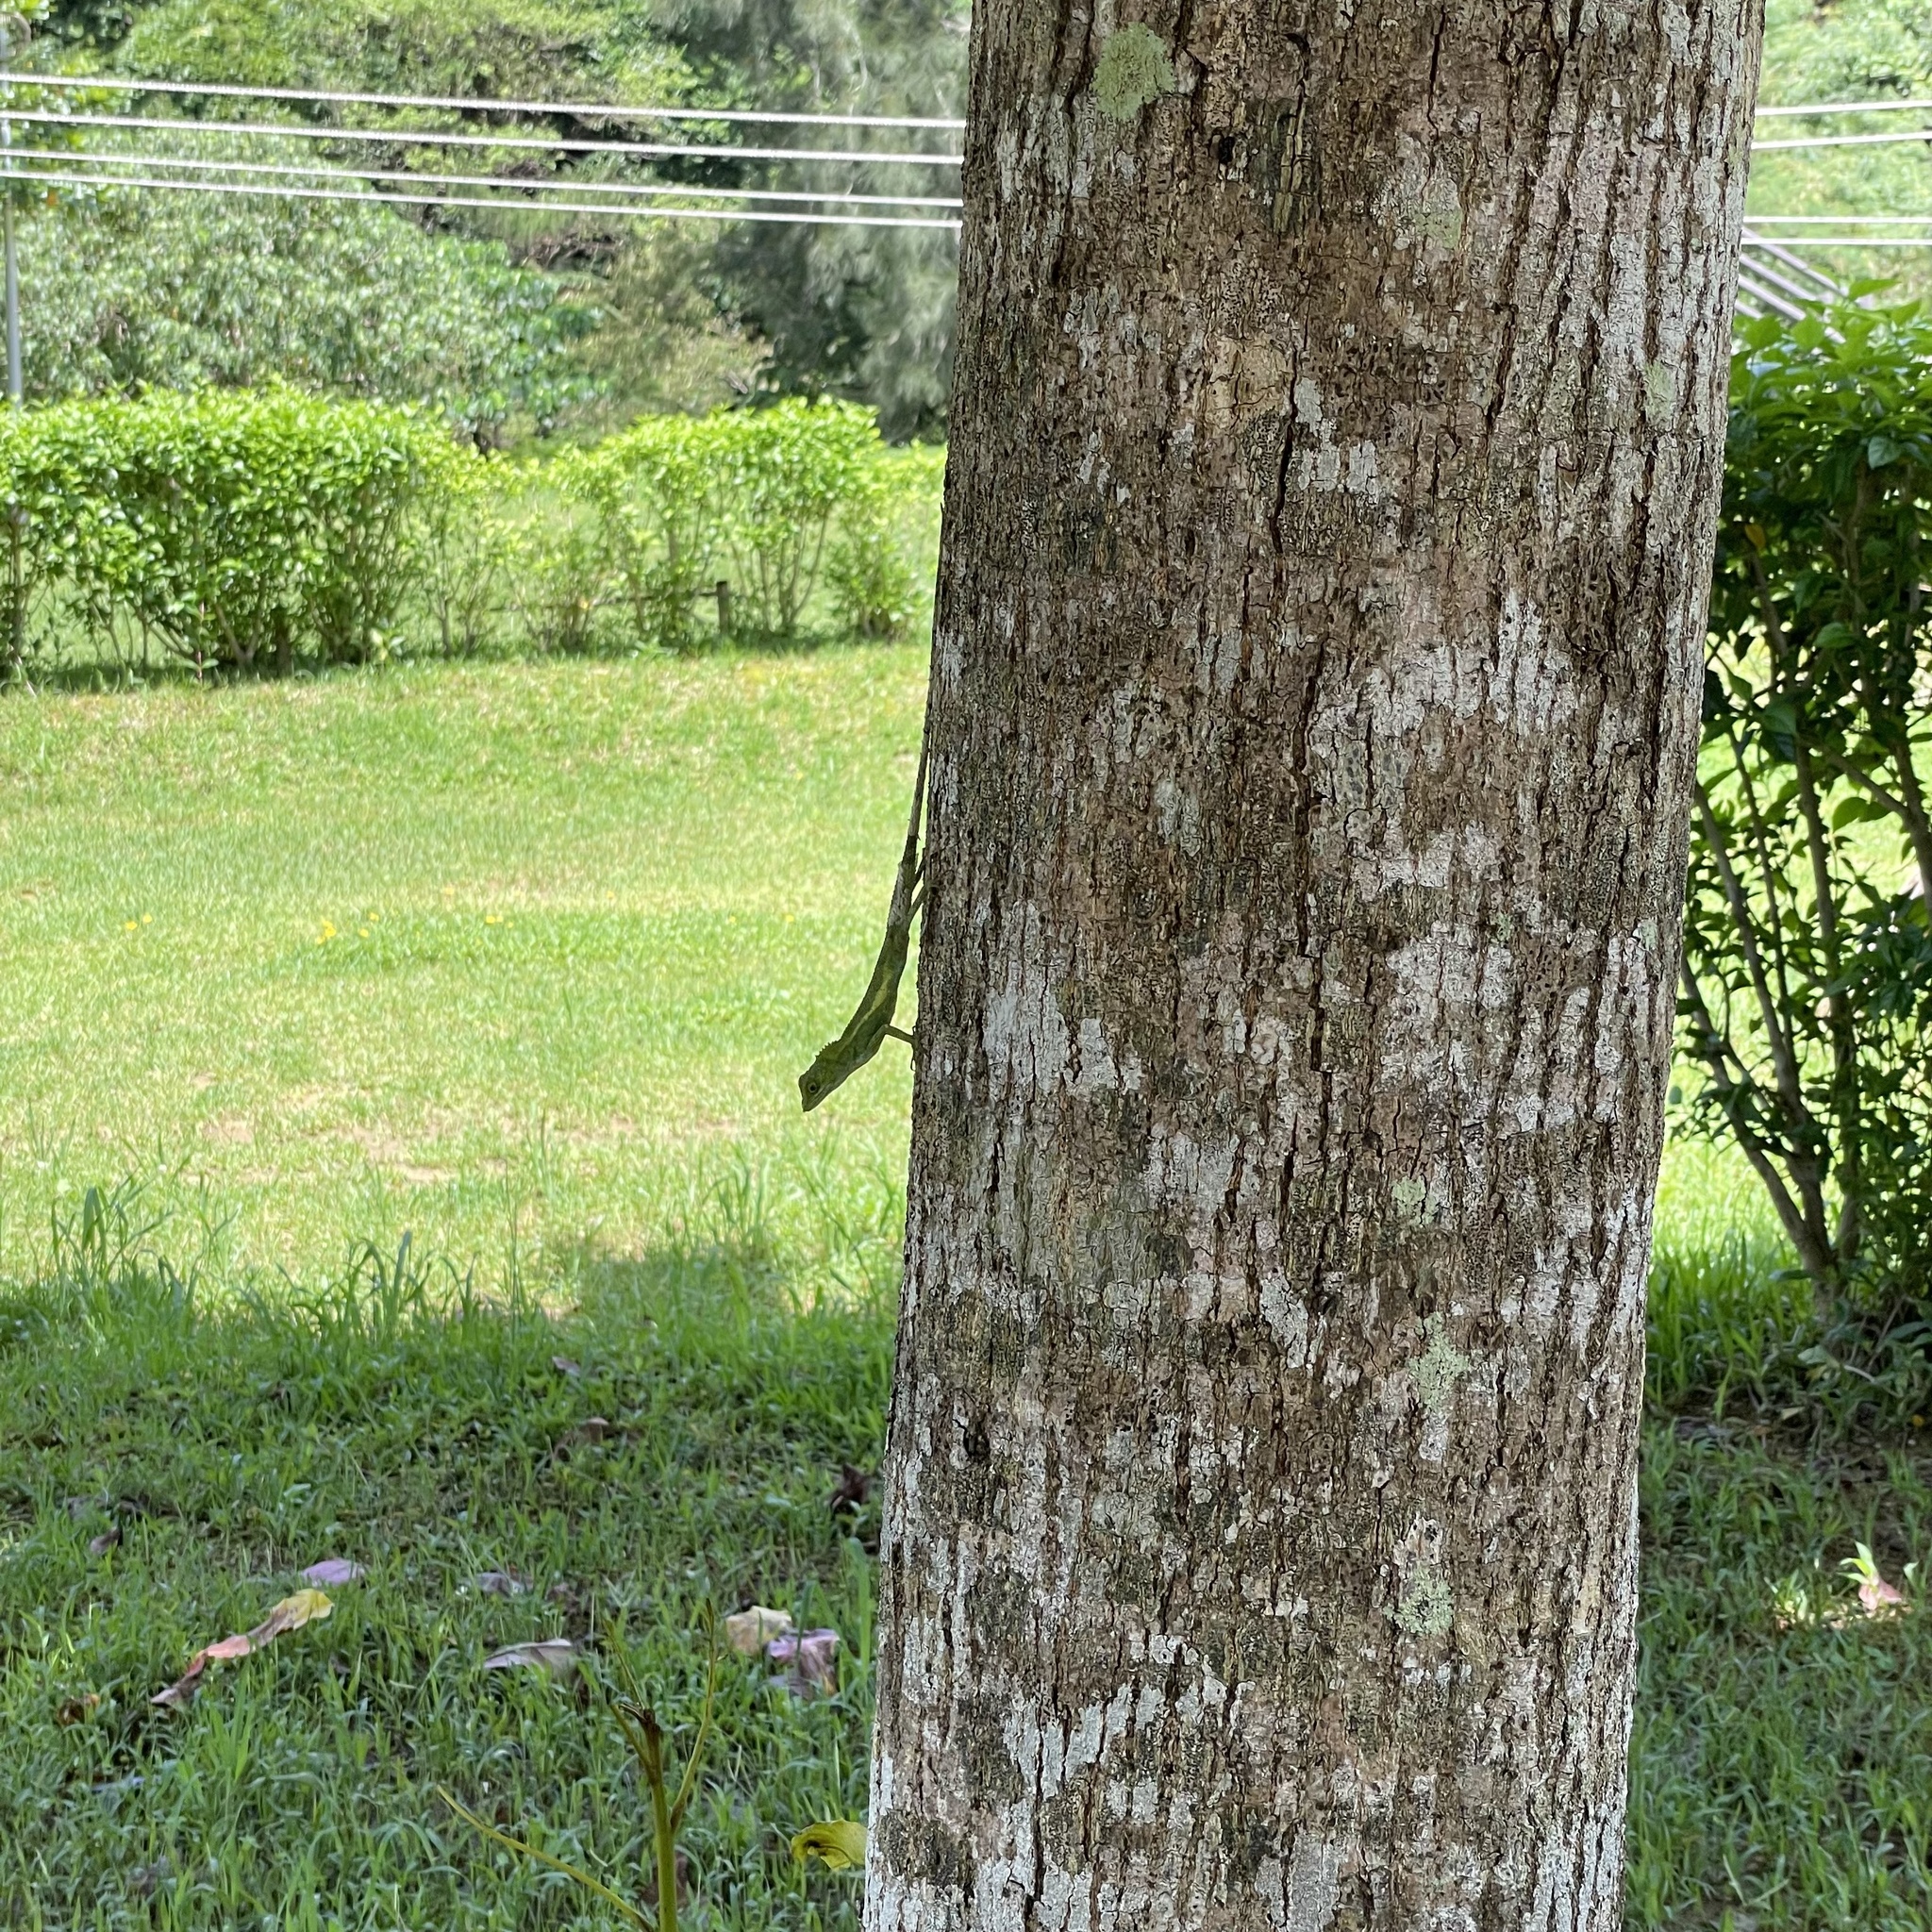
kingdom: Fungi
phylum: Basidiomycota
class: Agaricomycetes
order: Boletales
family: Diplocystidiaceae
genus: Diploderma
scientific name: Diploderma polygonatum
